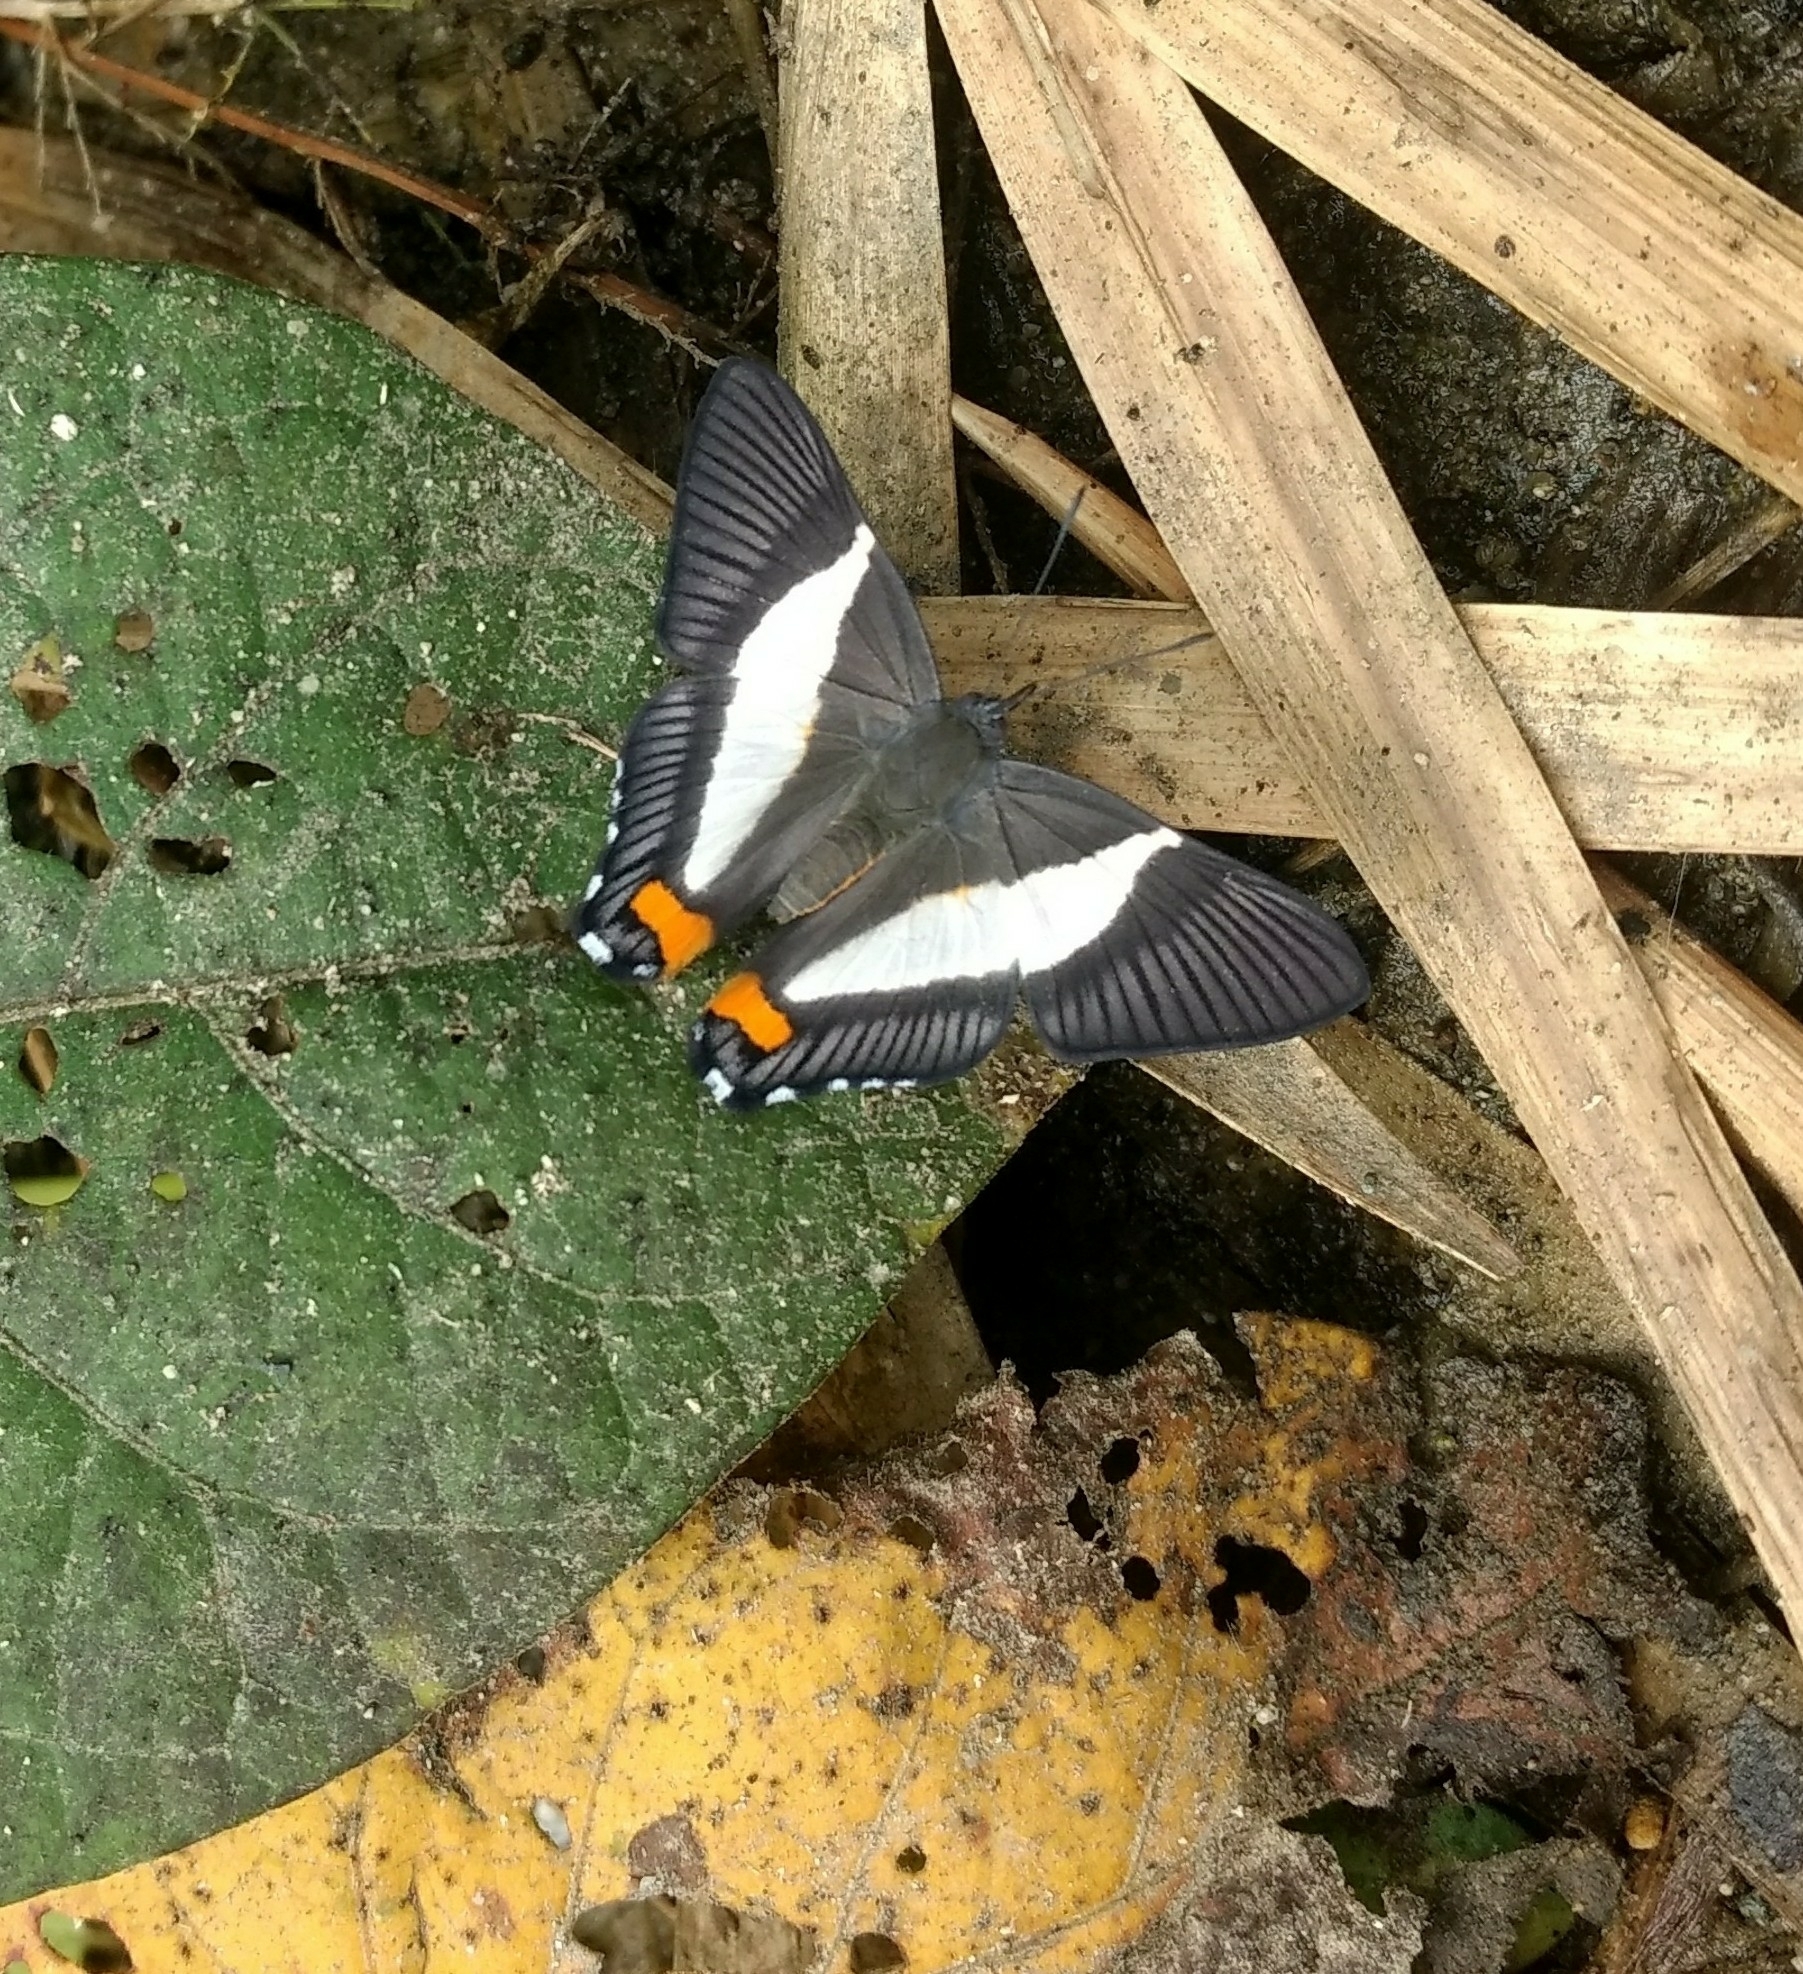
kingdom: Animalia
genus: Siseme
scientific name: Siseme neurodes
